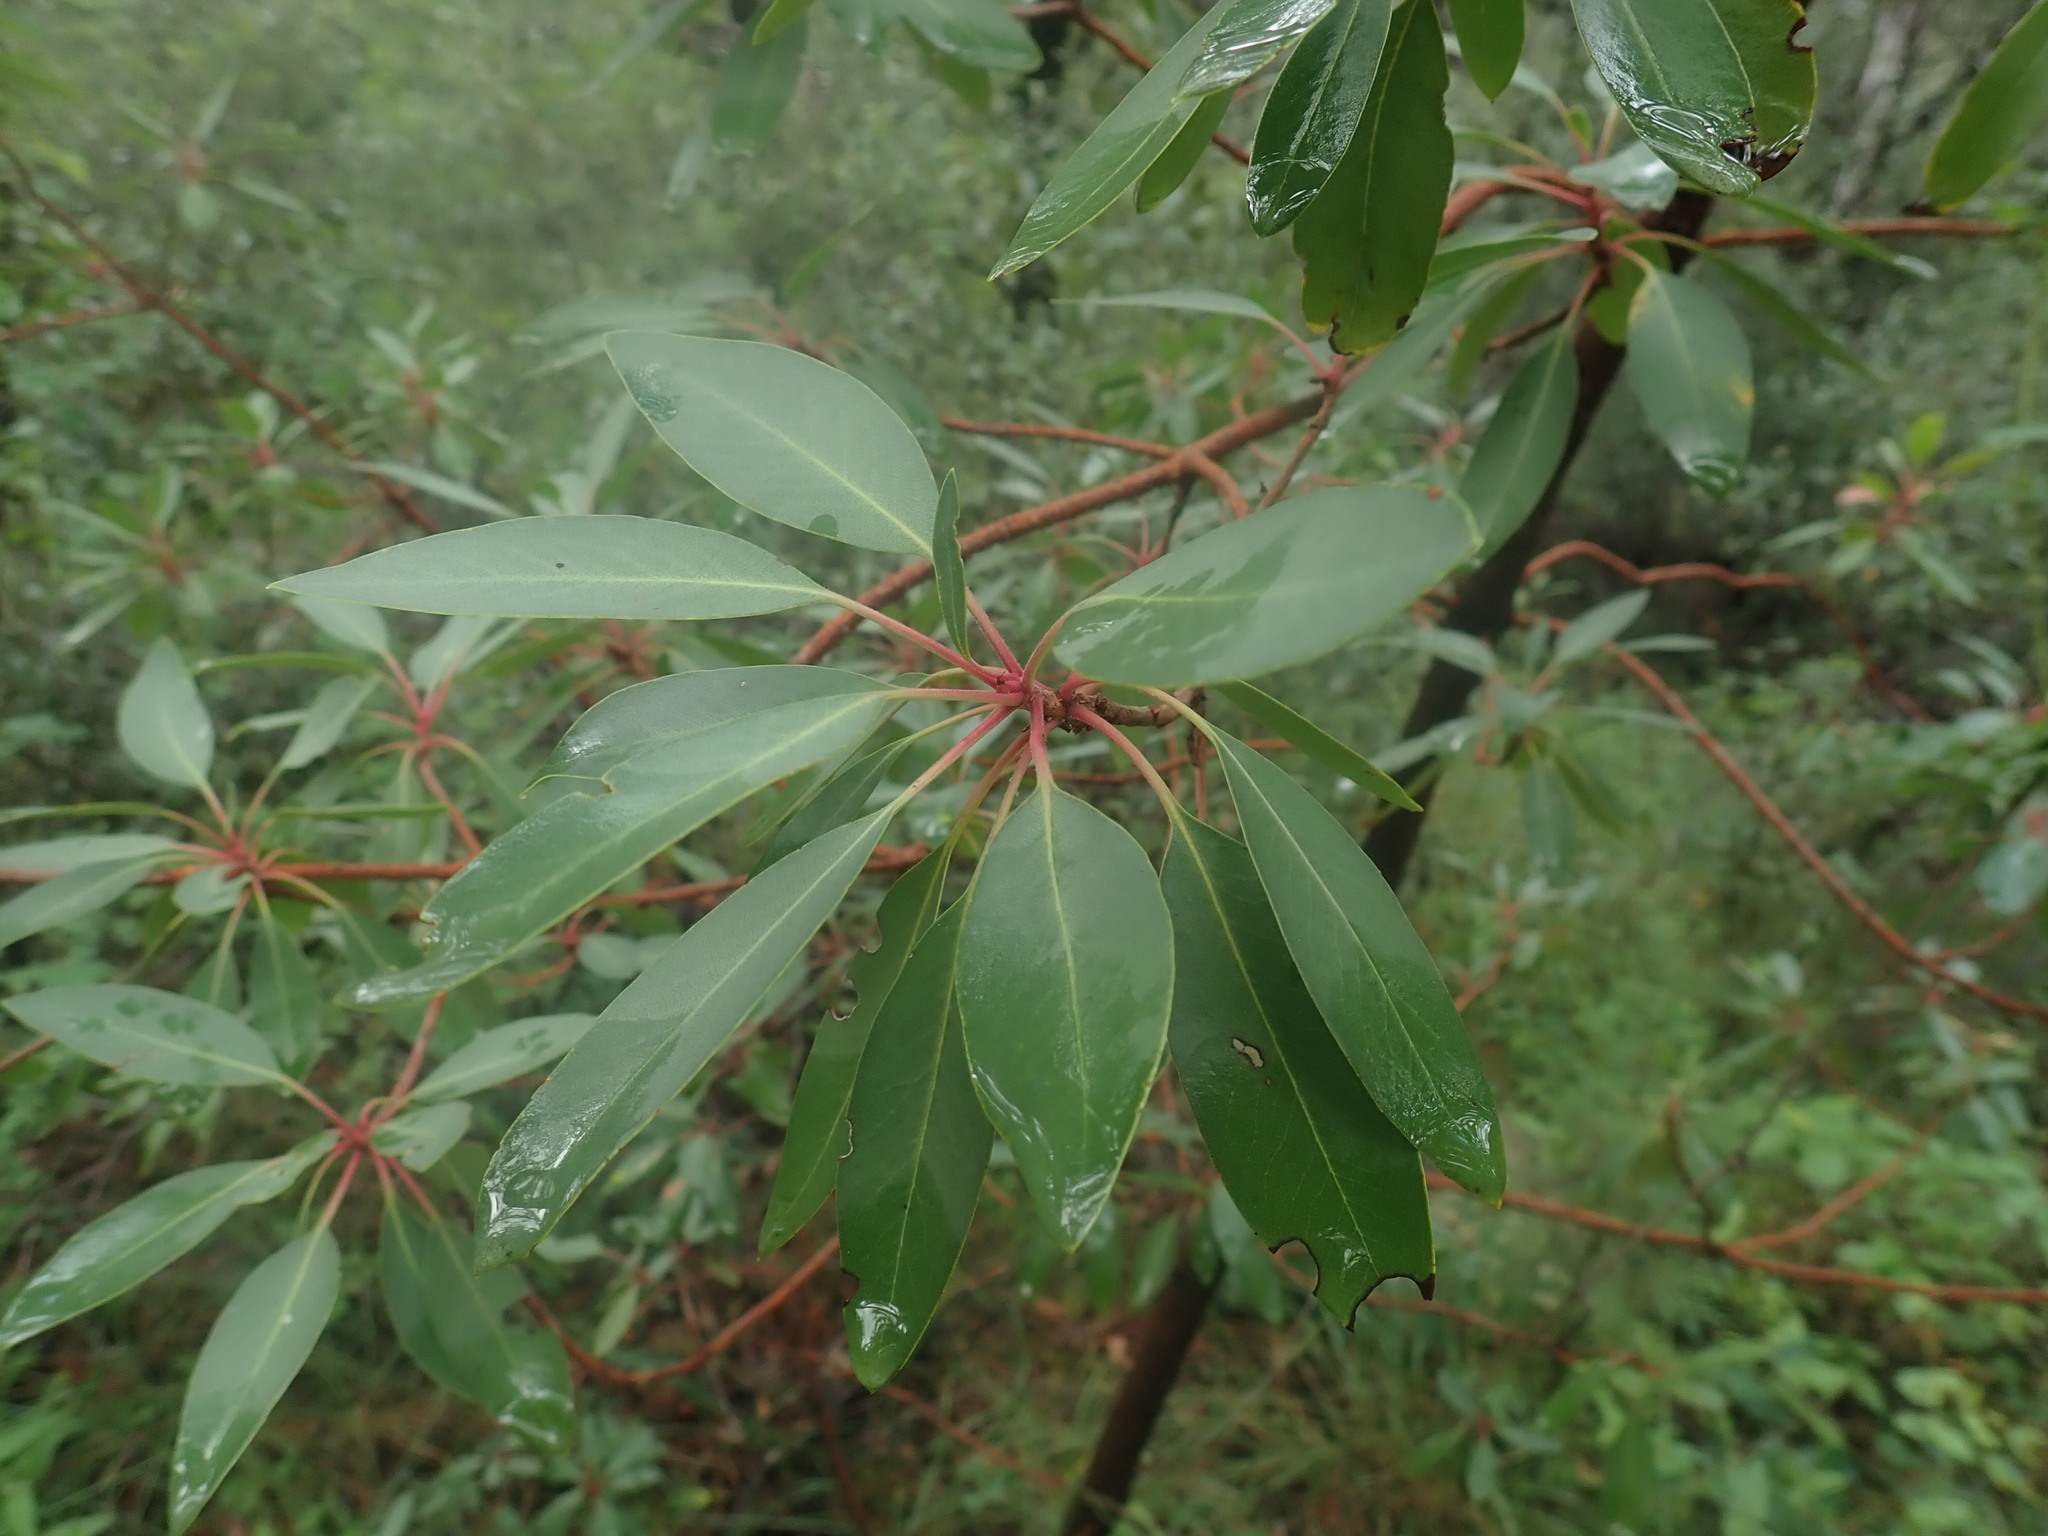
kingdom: Plantae
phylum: Tracheophyta
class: Magnoliopsida
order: Ericales
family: Ericaceae
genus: Arbutus
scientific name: Arbutus arizonica
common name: Arizona madrone
